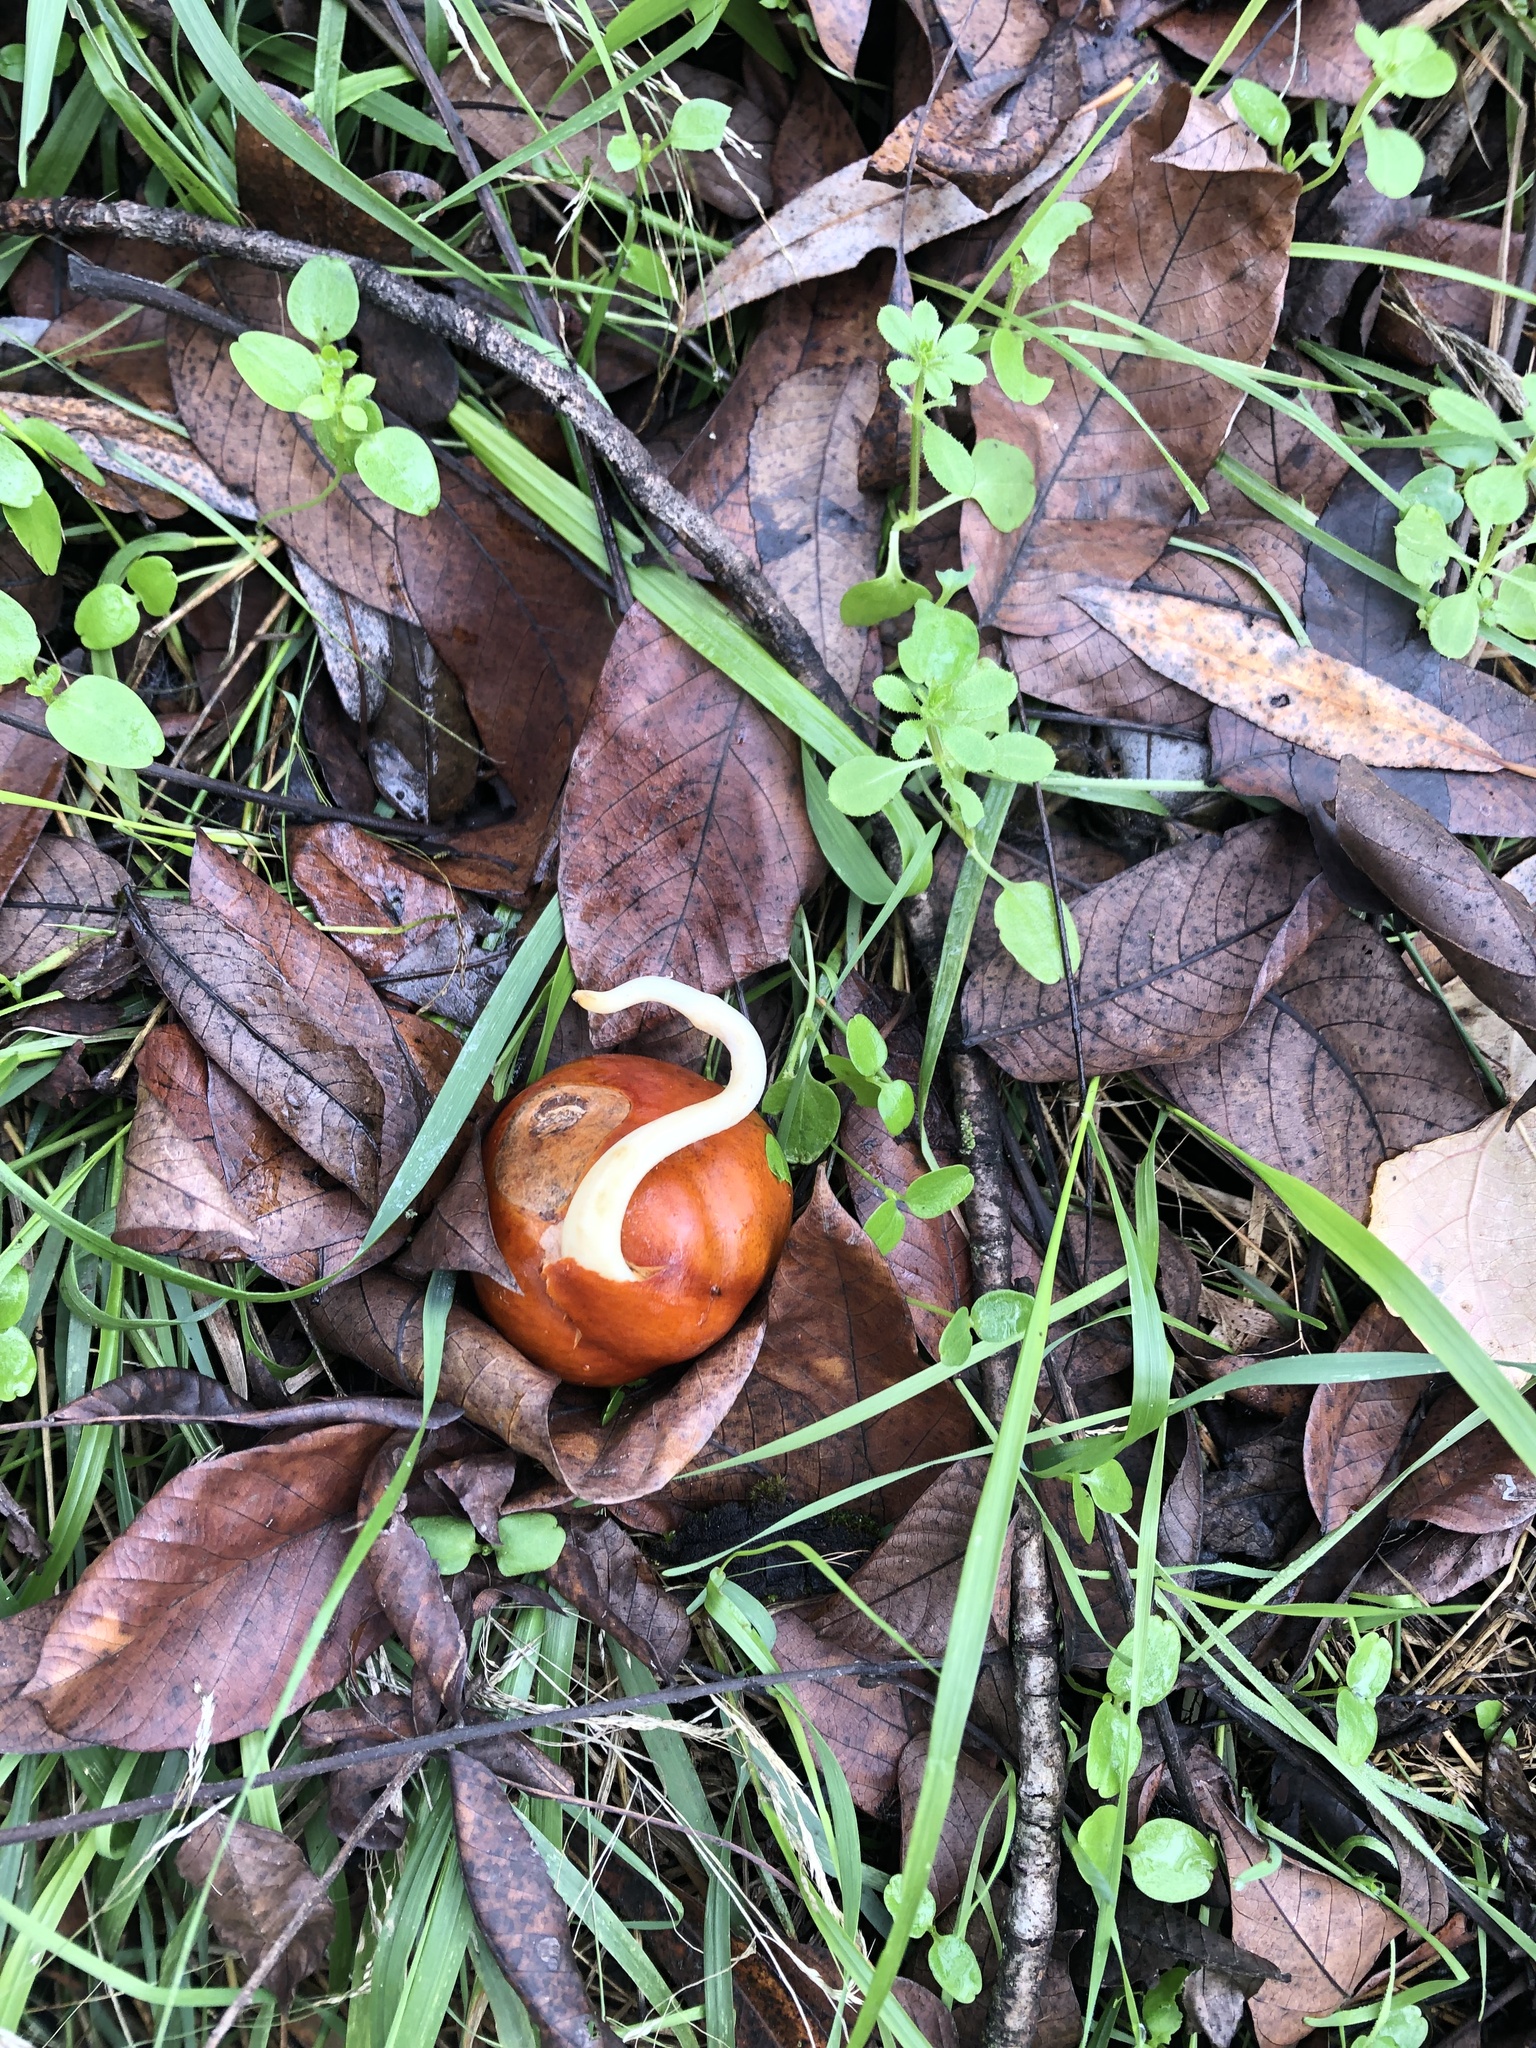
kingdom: Plantae
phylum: Tracheophyta
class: Magnoliopsida
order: Sapindales
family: Sapindaceae
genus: Aesculus
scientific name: Aesculus californica
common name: California buckeye
